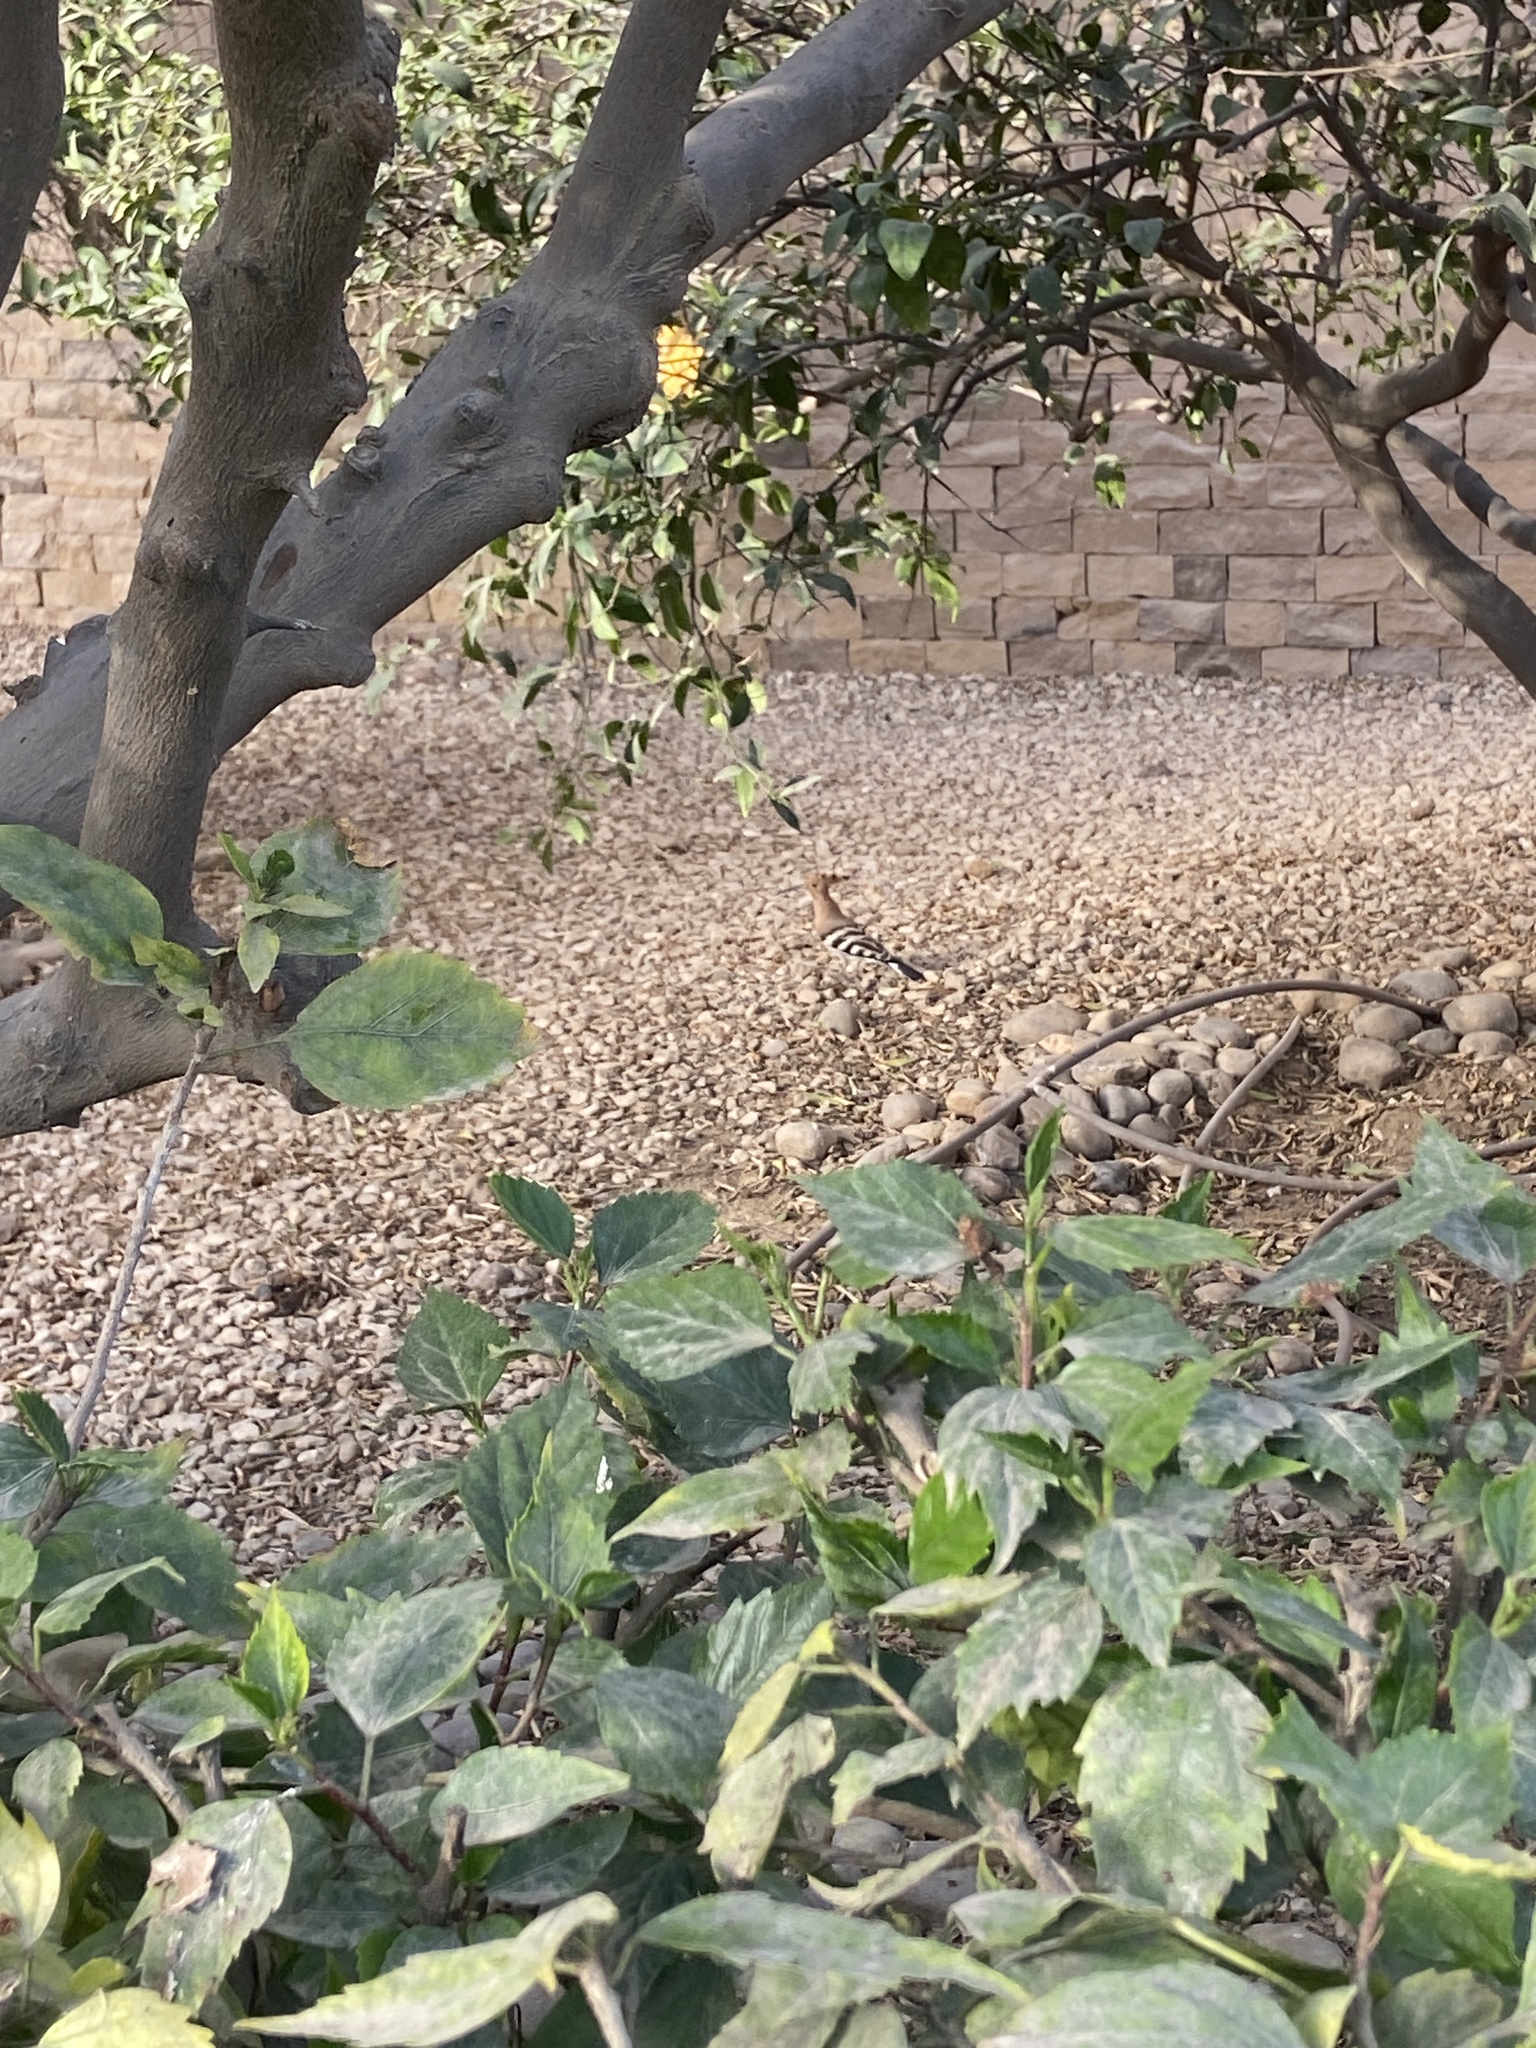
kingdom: Animalia
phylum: Chordata
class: Aves
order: Bucerotiformes
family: Upupidae
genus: Upupa
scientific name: Upupa epops
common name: Eurasian hoopoe
